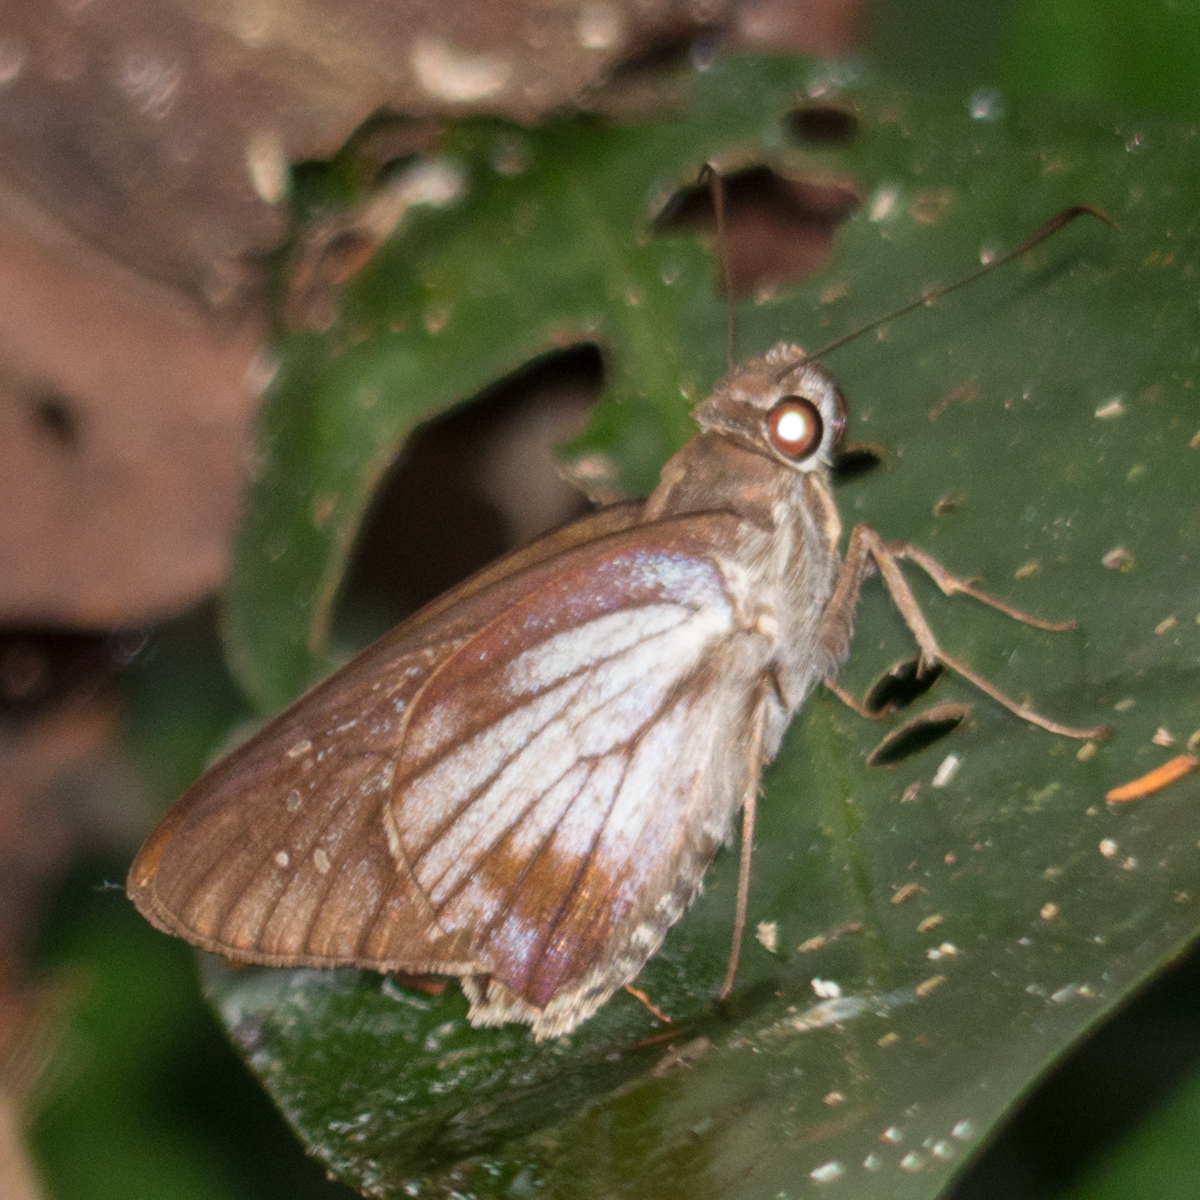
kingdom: Animalia
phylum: Arthropoda
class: Insecta
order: Lepidoptera
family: Hesperiidae
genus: Unkana
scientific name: Unkana ambasa
